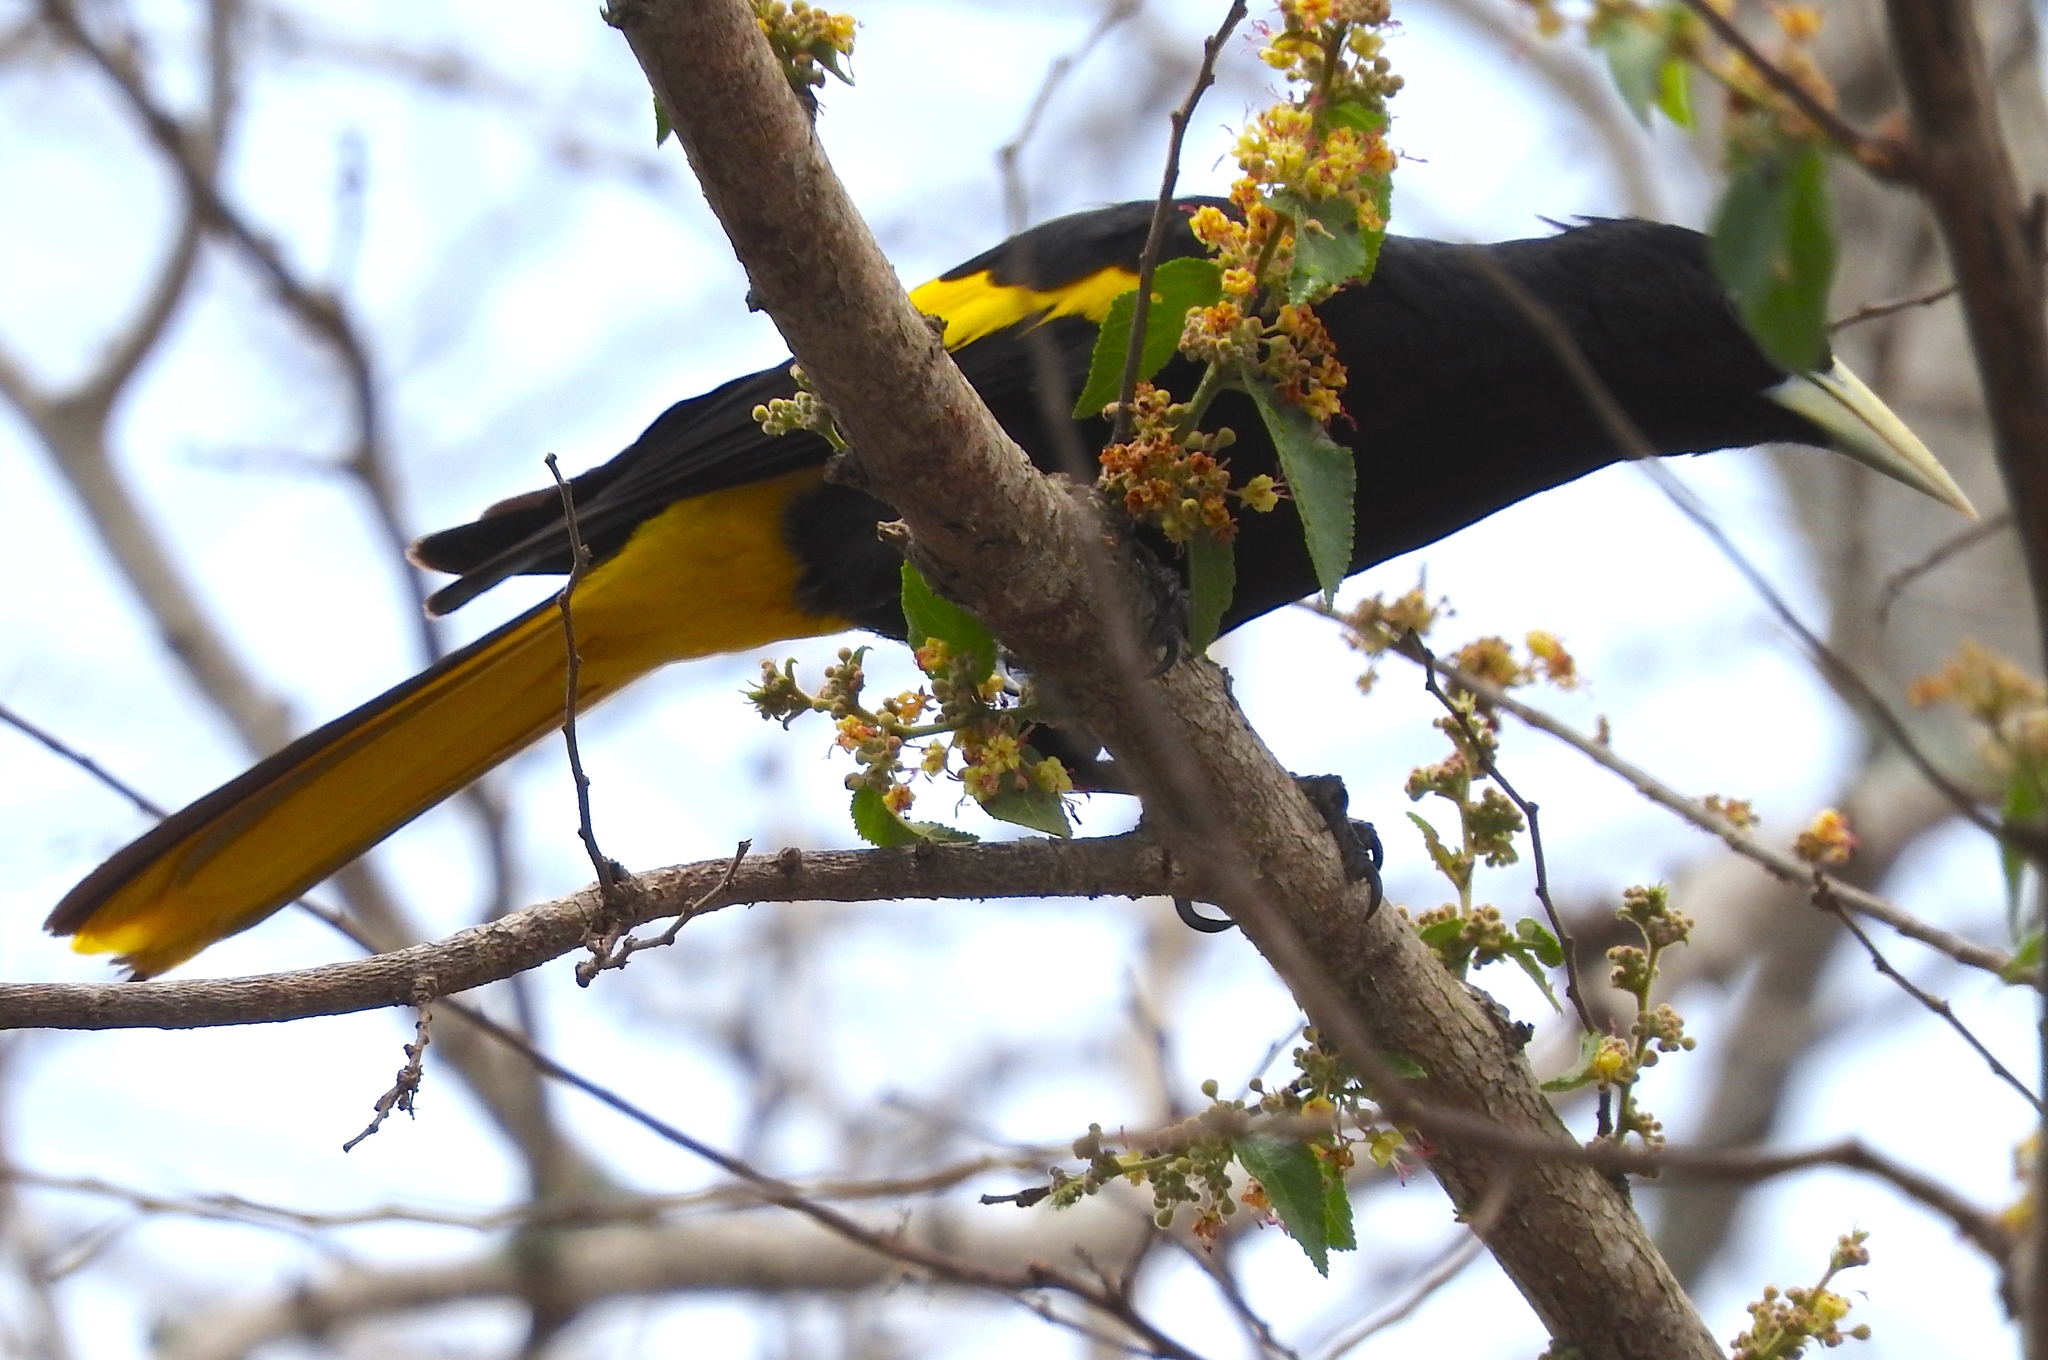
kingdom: Animalia
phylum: Chordata
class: Aves
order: Passeriformes
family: Icteridae
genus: Cacicus
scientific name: Cacicus melanicterus
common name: Yellow-winged cacique
